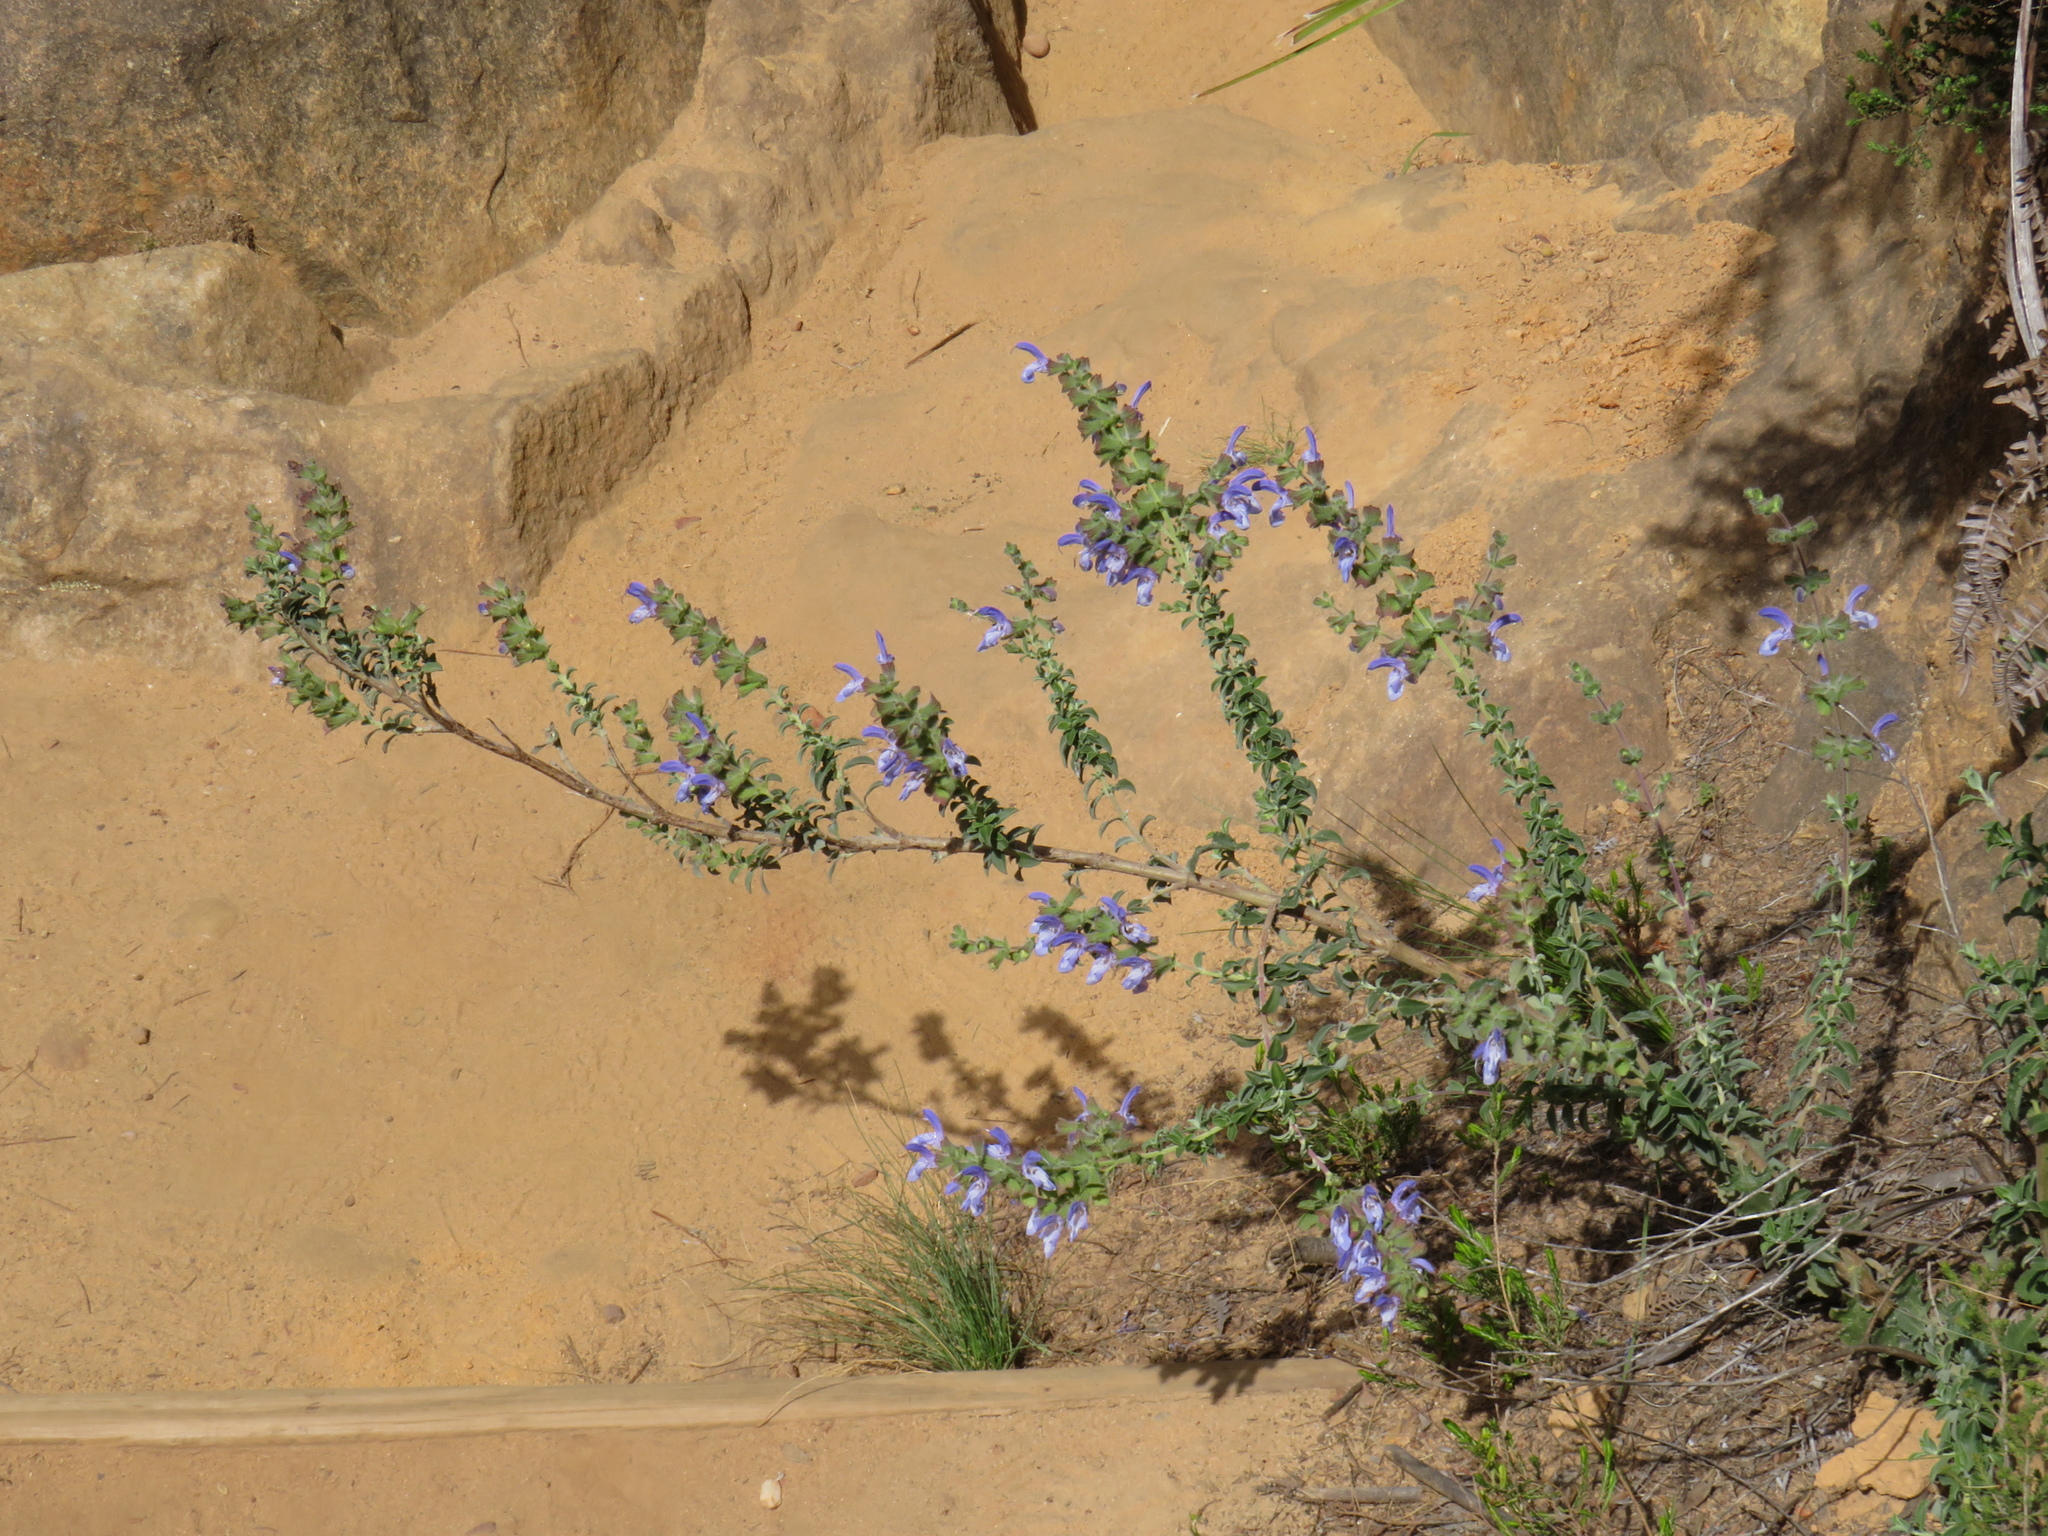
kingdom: Plantae
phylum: Tracheophyta
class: Magnoliopsida
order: Lamiales
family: Lamiaceae
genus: Salvia
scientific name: Salvia africana
